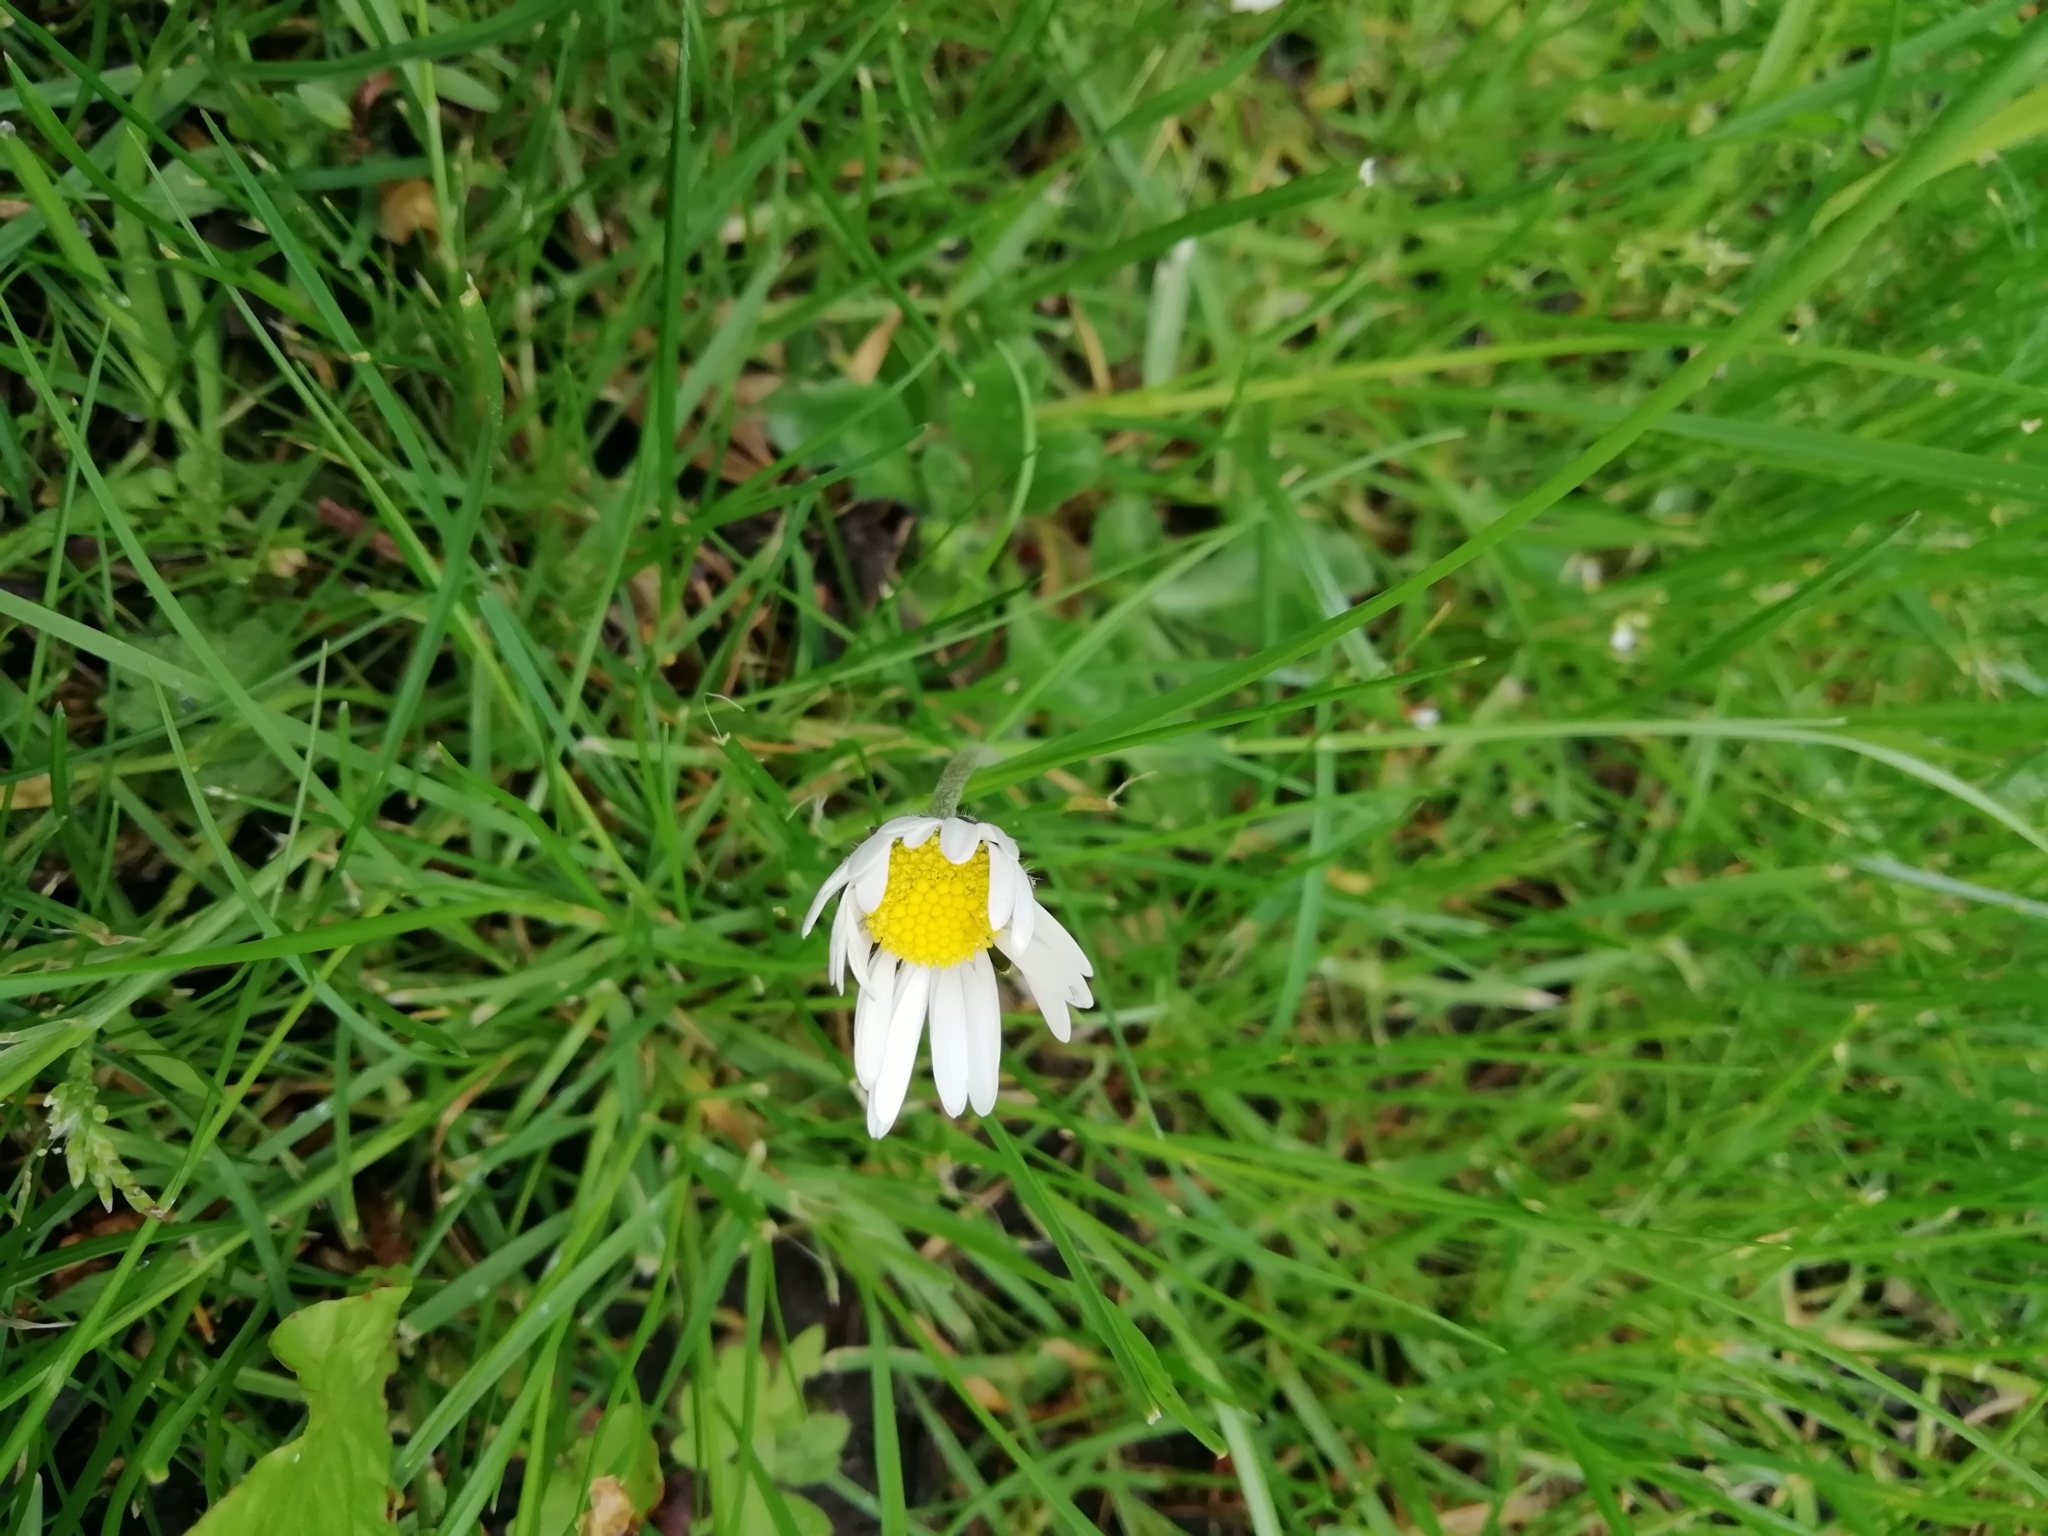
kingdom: Plantae
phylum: Tracheophyta
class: Magnoliopsida
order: Asterales
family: Asteraceae
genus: Bellis
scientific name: Bellis perennis
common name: Lawndaisy
